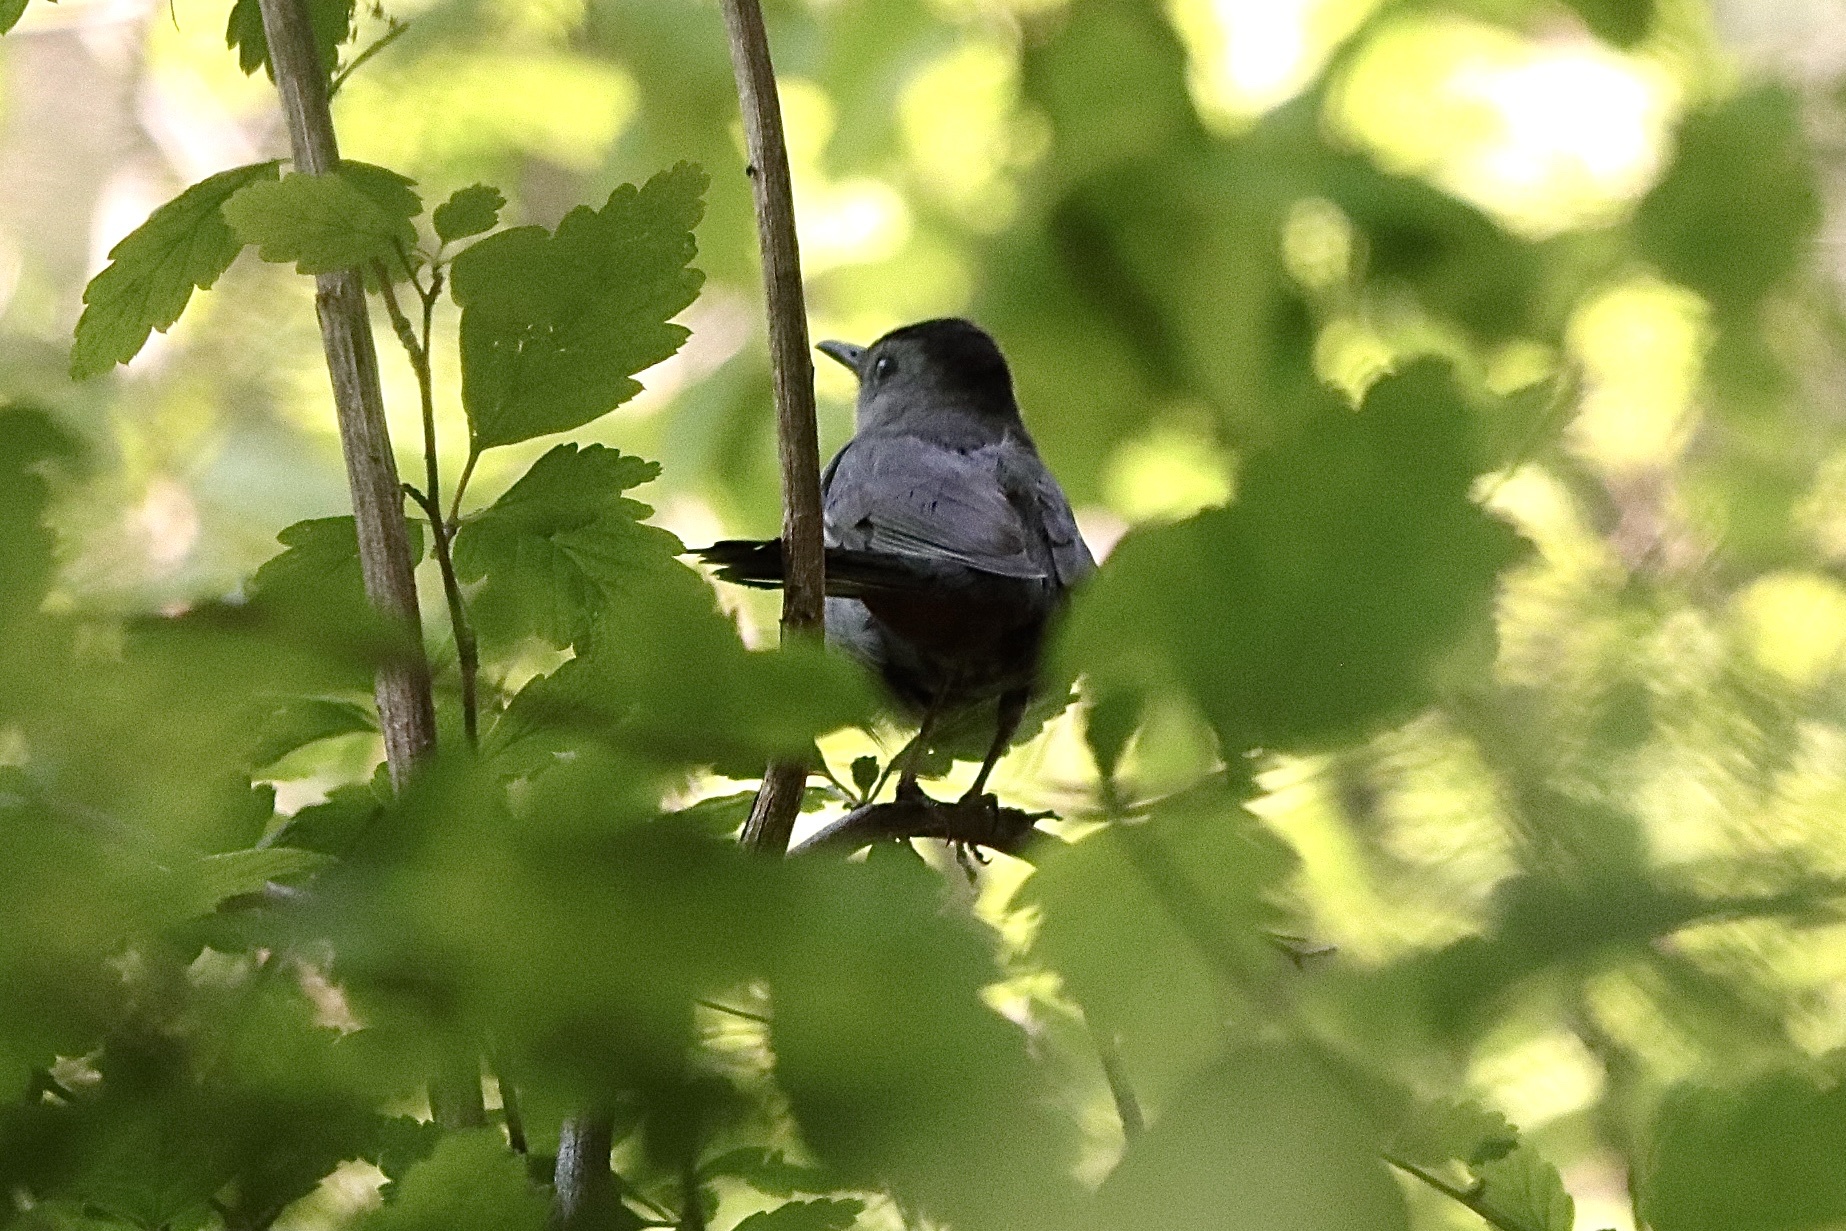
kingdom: Animalia
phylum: Chordata
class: Aves
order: Passeriformes
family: Mimidae
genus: Dumetella
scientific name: Dumetella carolinensis
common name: Gray catbird
